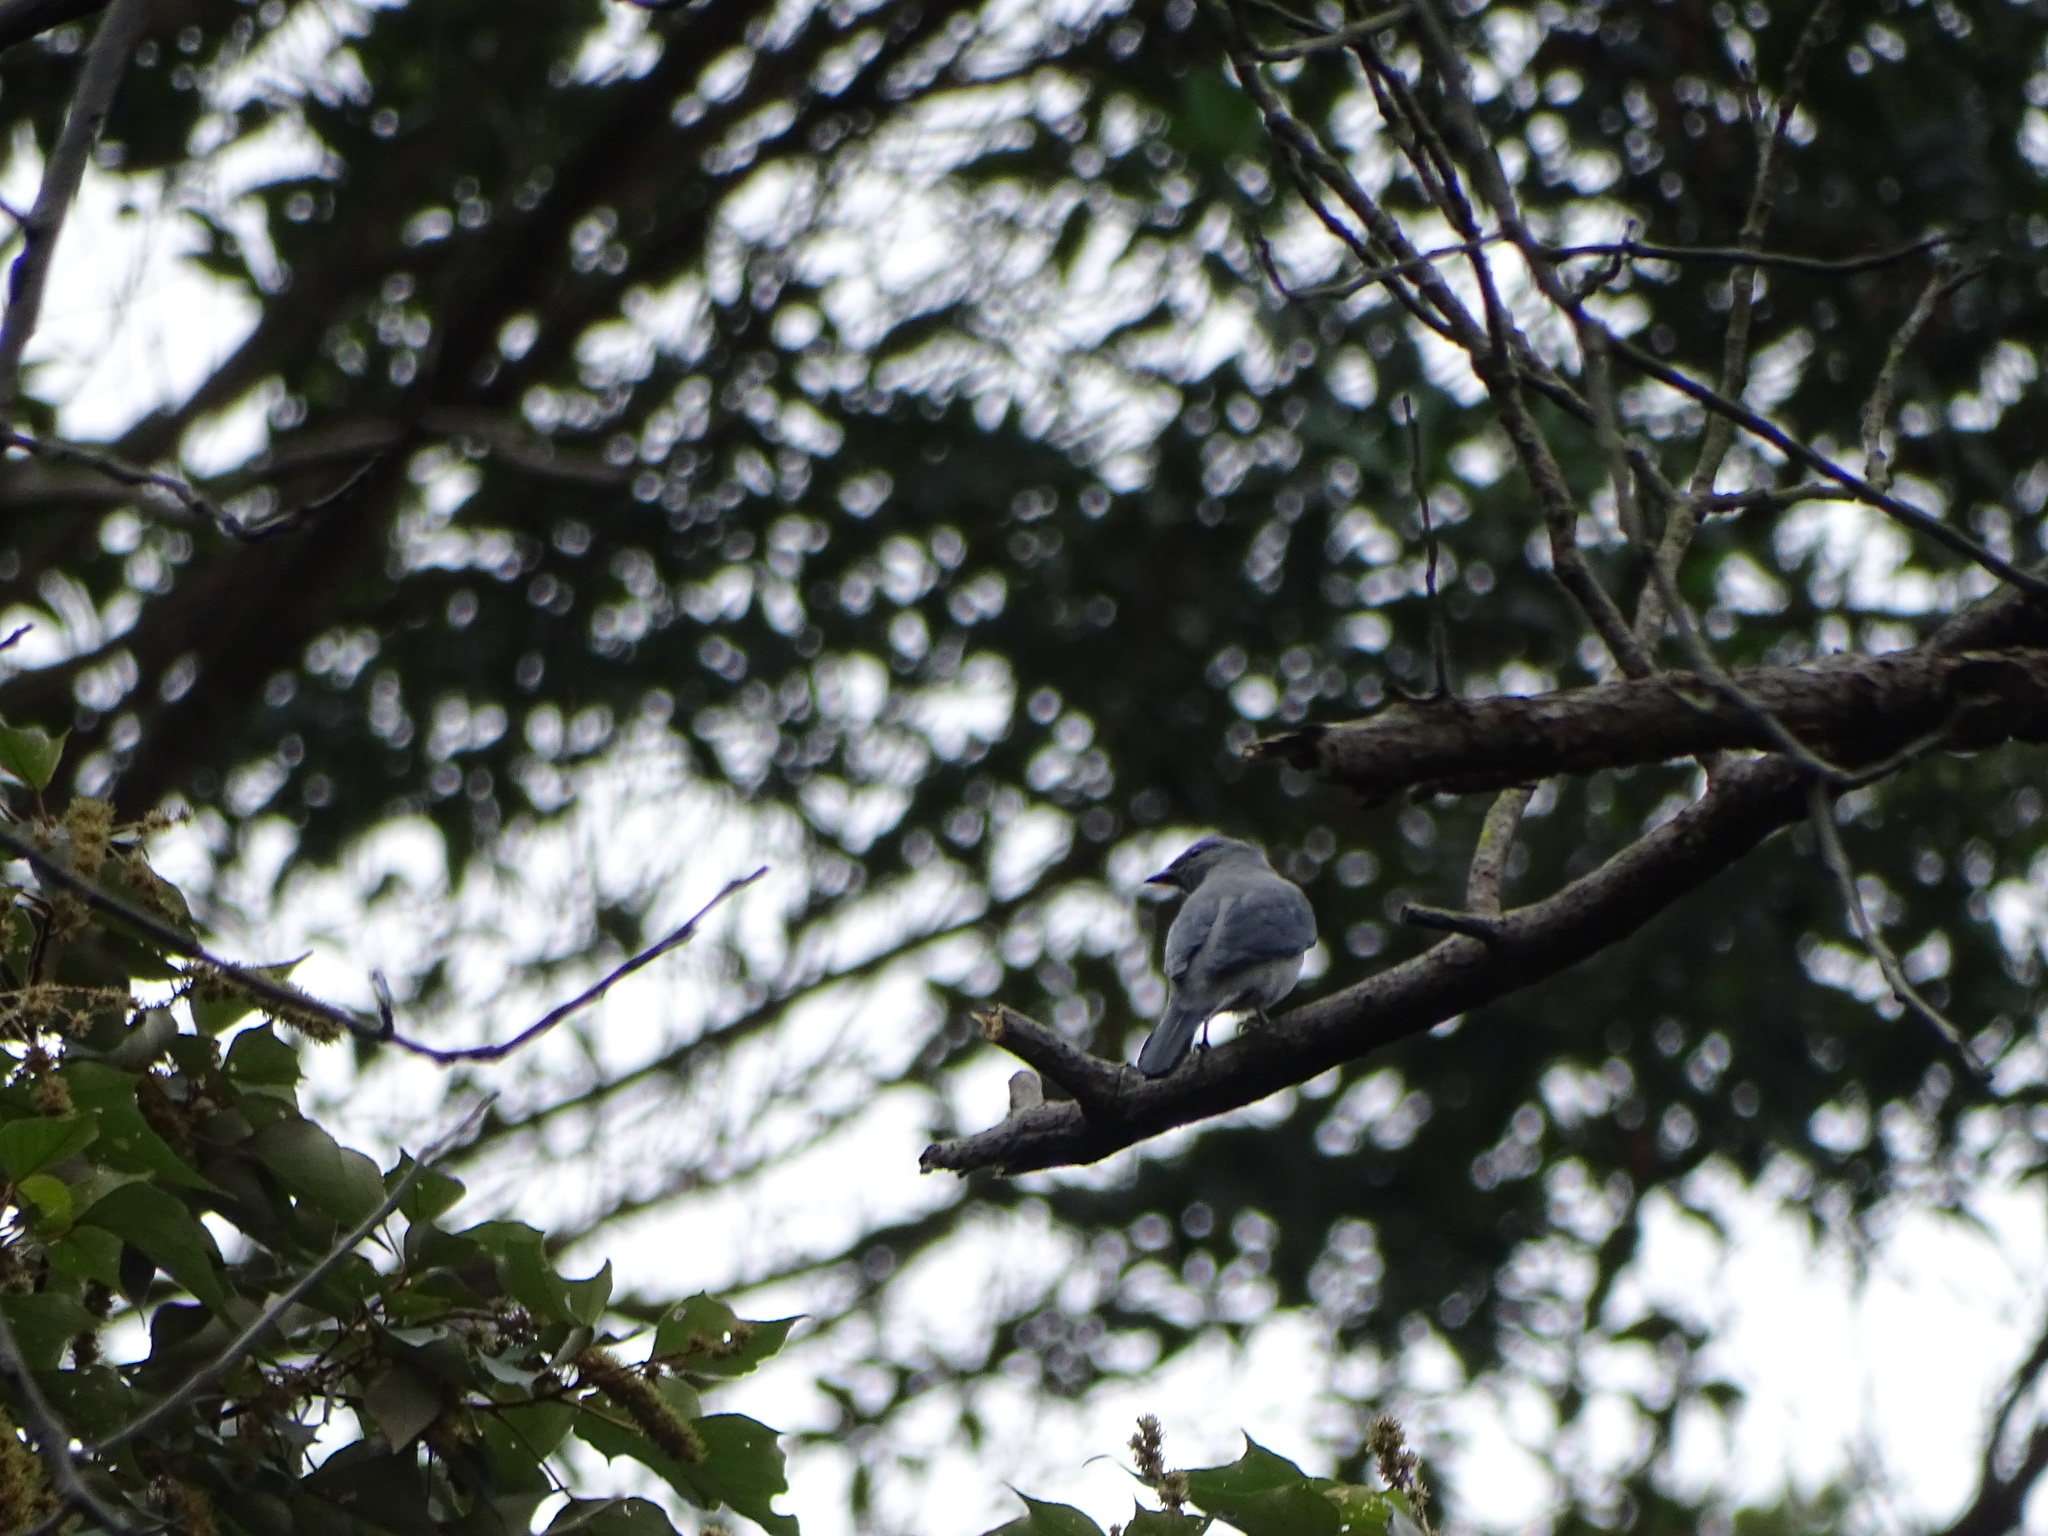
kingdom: Animalia
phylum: Chordata
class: Aves
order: Passeriformes
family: Campephagidae
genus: Coracina
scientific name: Coracina melaschistos
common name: Black-winged cuckooshrike
